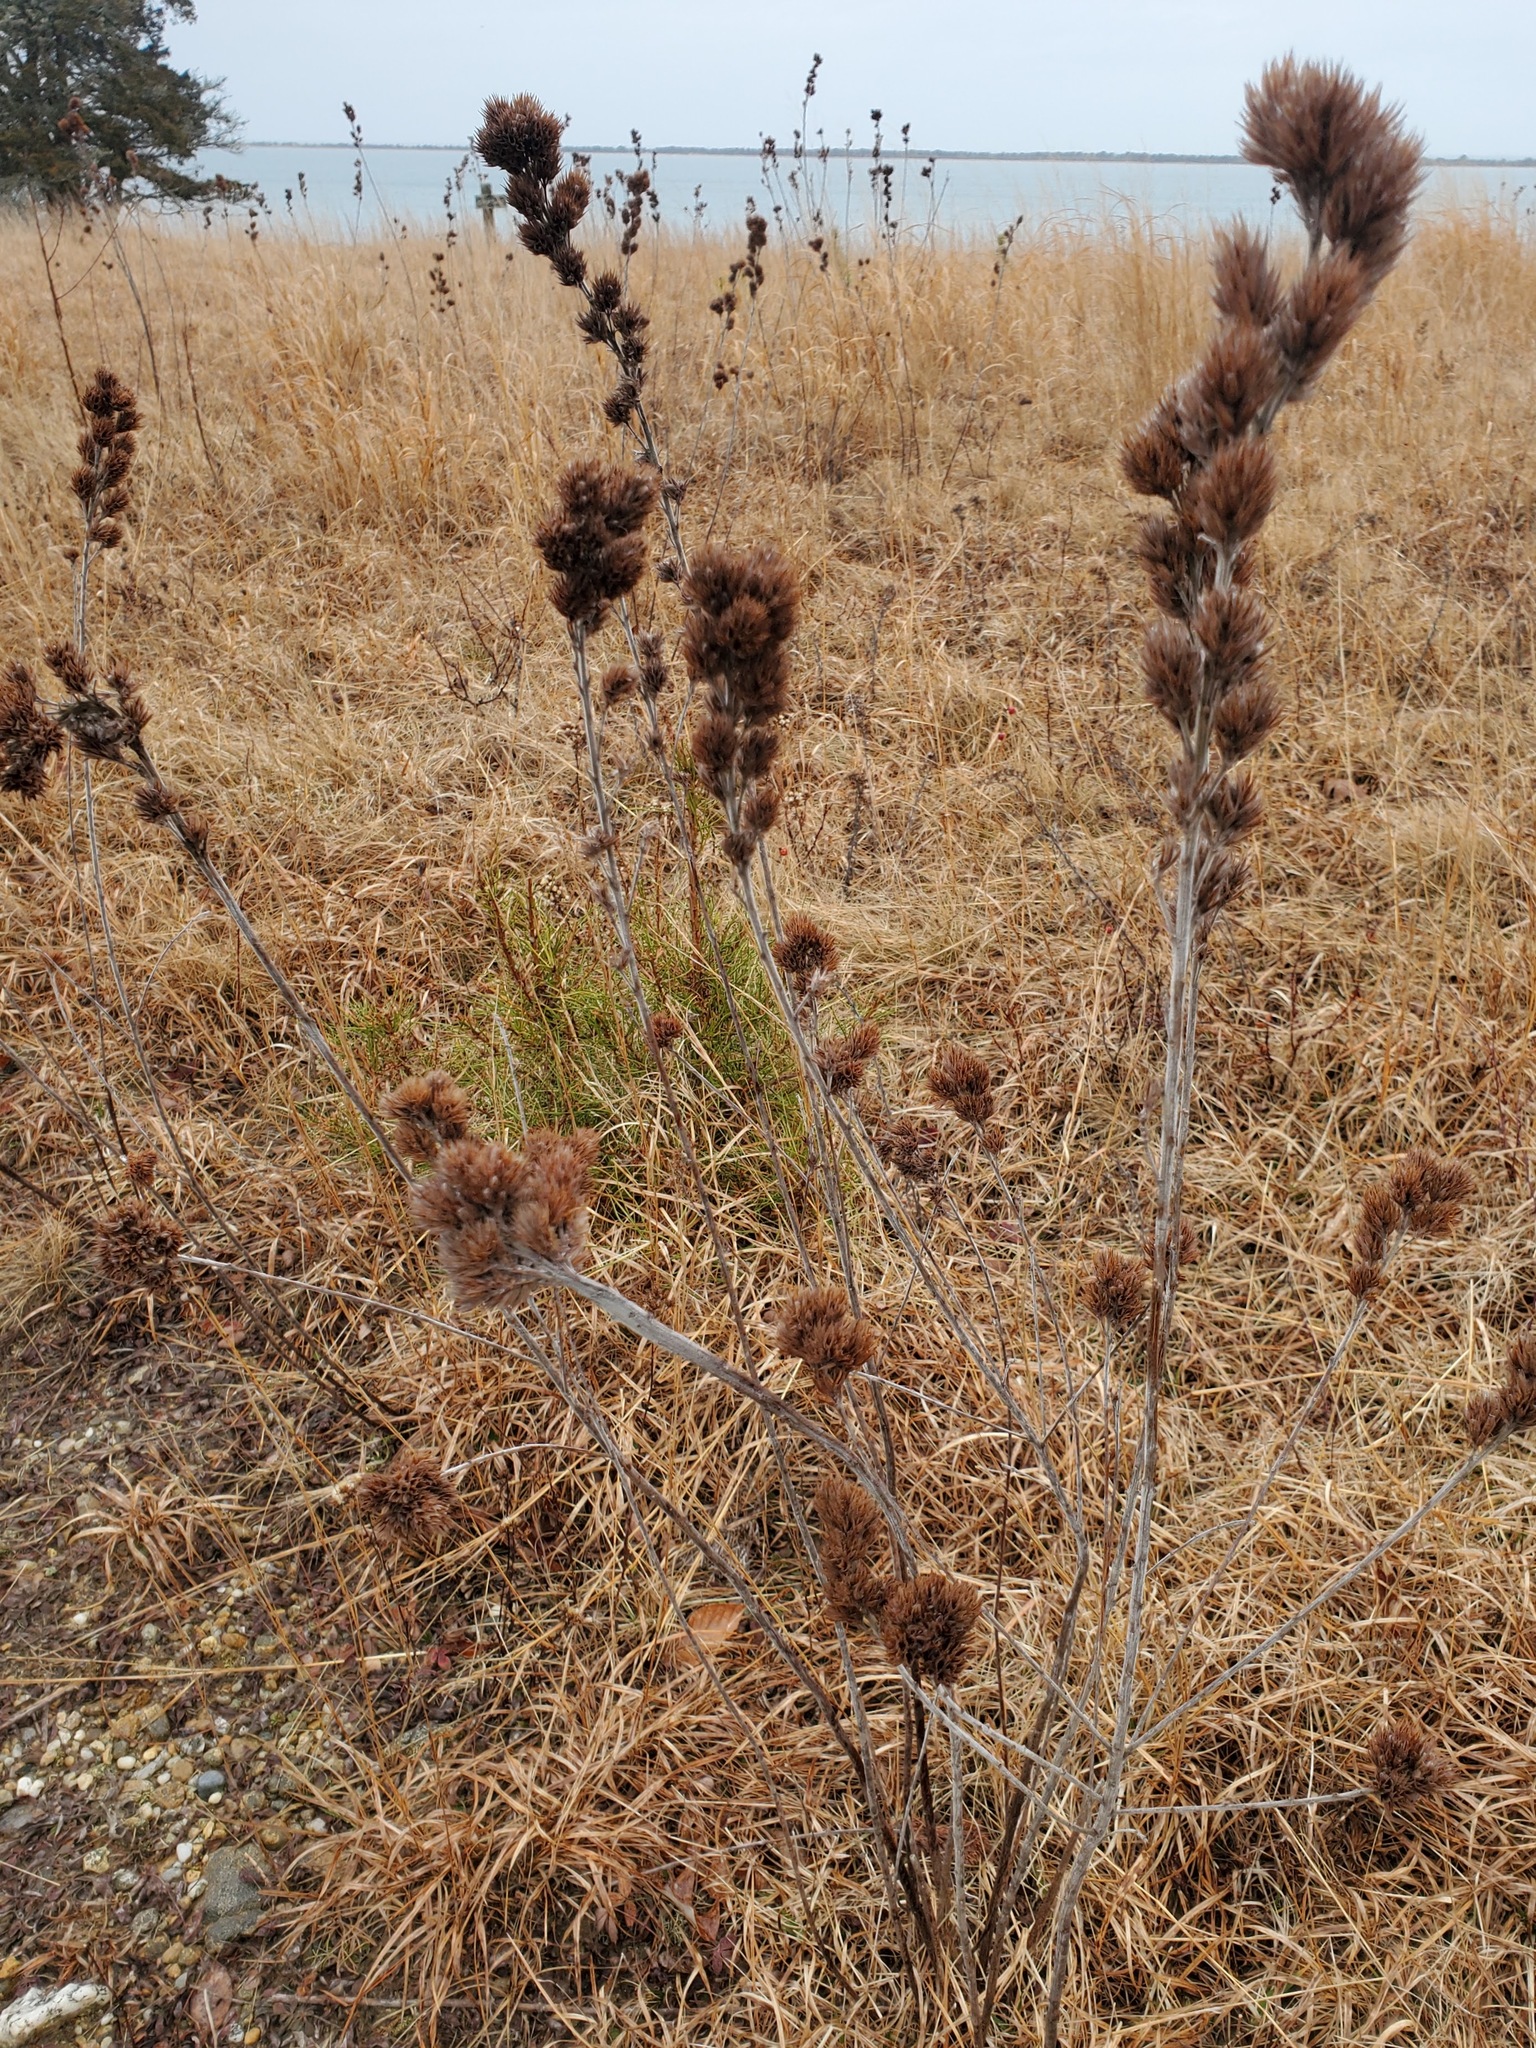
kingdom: Plantae
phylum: Tracheophyta
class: Magnoliopsida
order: Fabales
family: Fabaceae
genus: Lespedeza
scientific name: Lespedeza capitata
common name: Dusty clover
